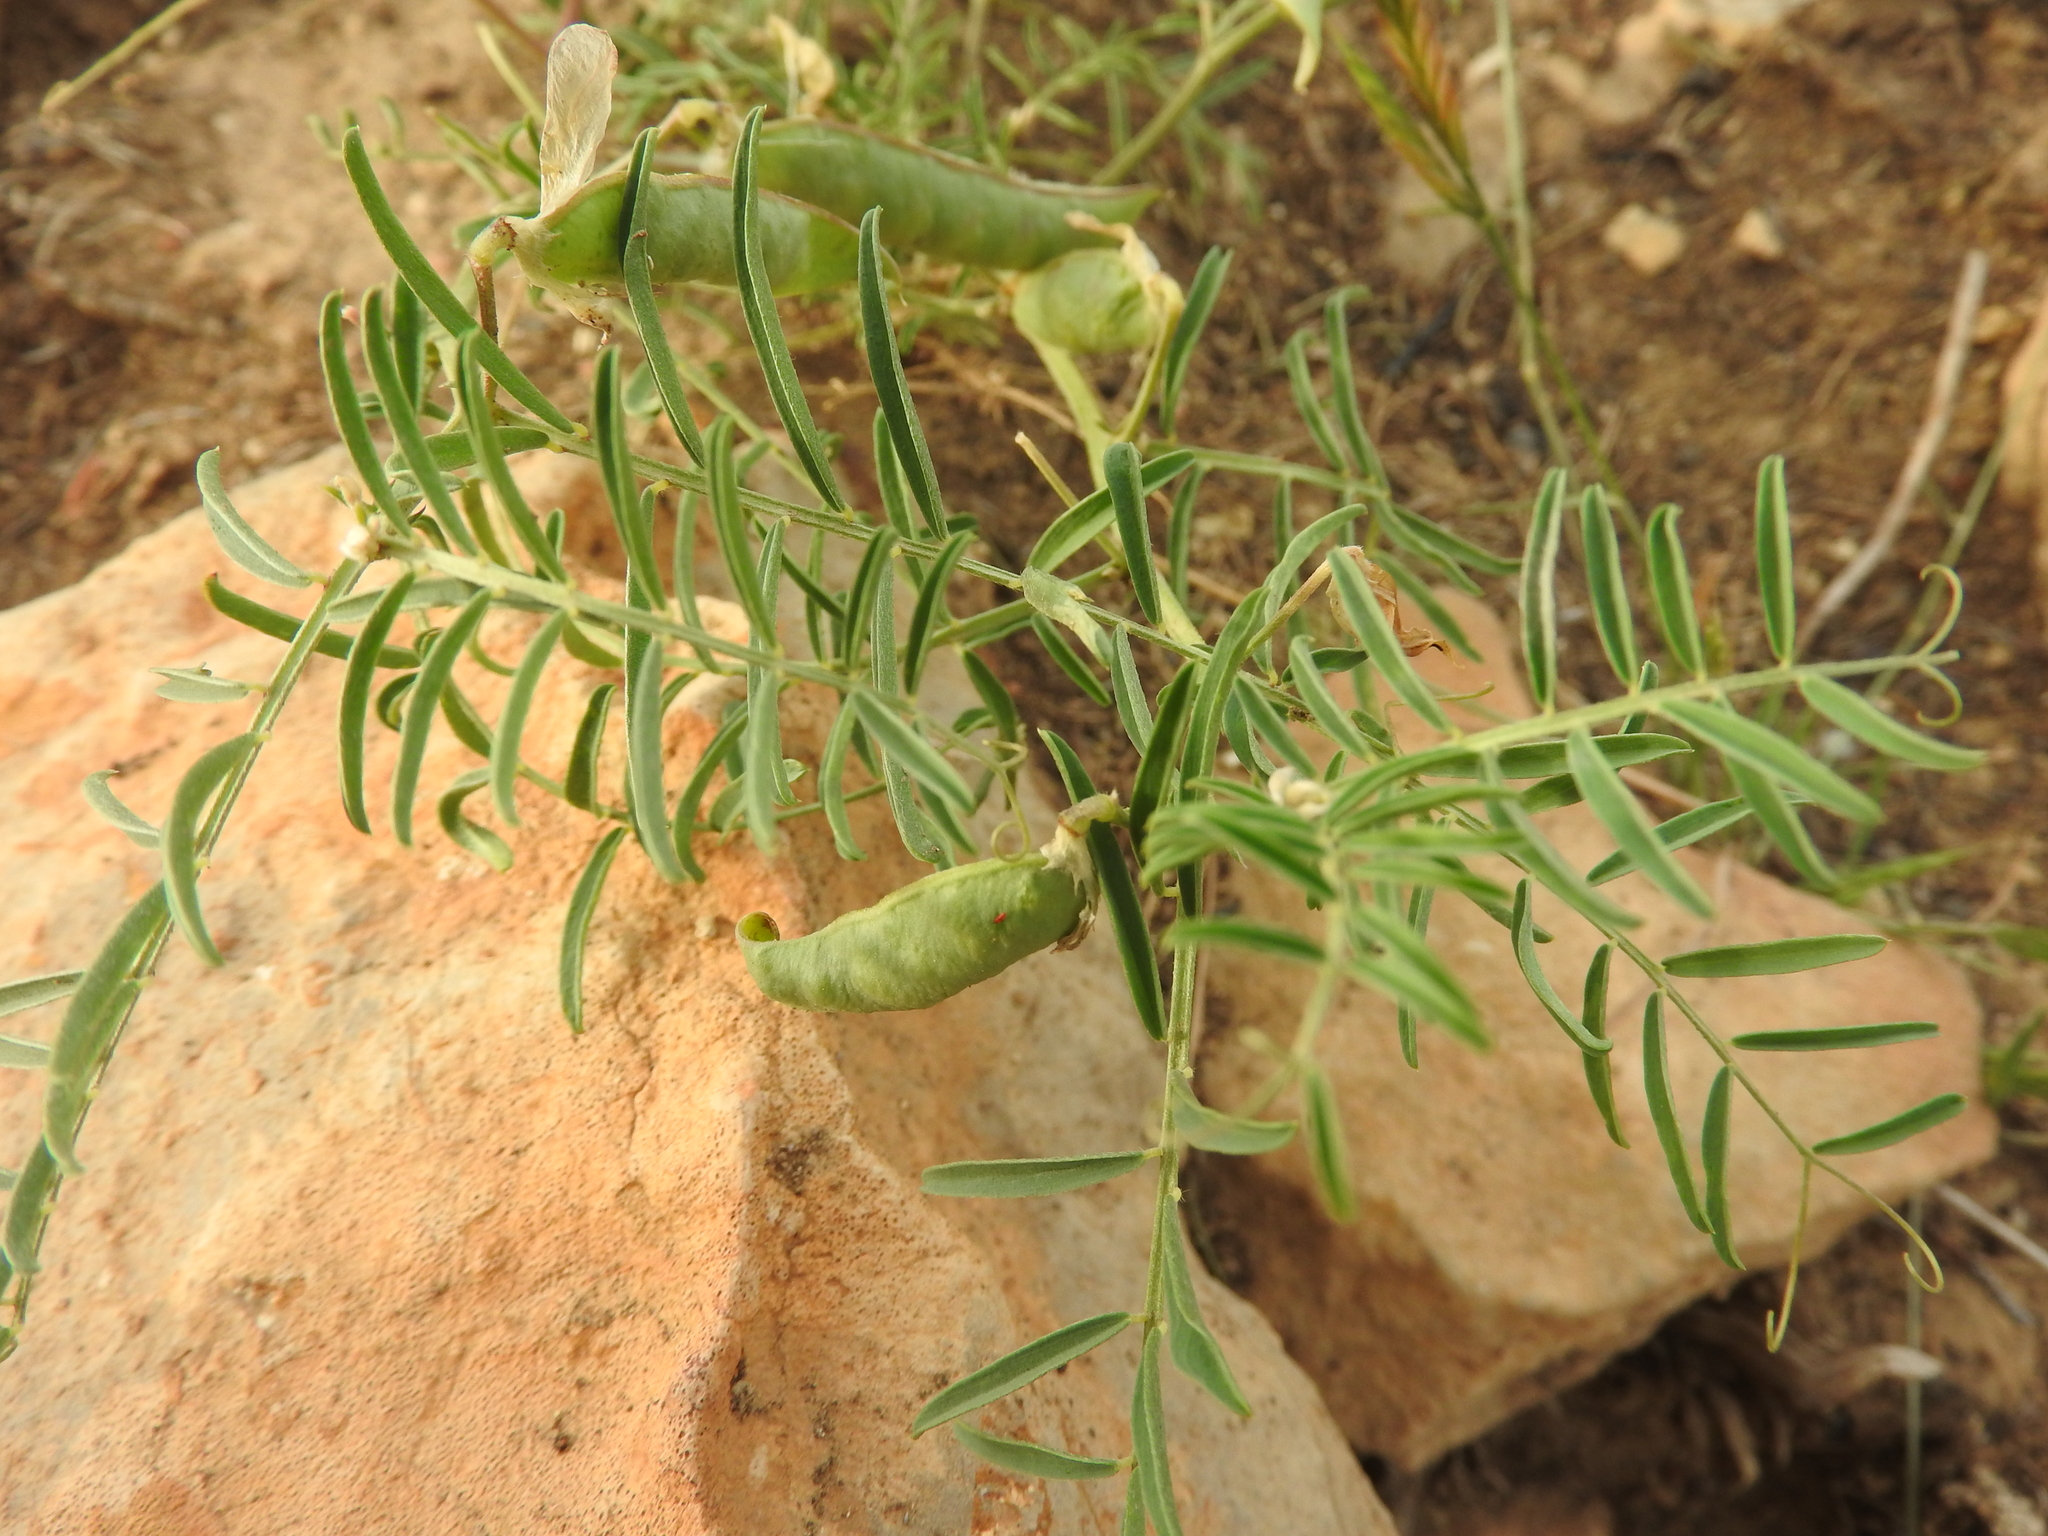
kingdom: Plantae
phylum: Tracheophyta
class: Magnoliopsida
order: Fabales
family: Fabaceae
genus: Vicia
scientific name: Vicia monantha
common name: Barn vetch
